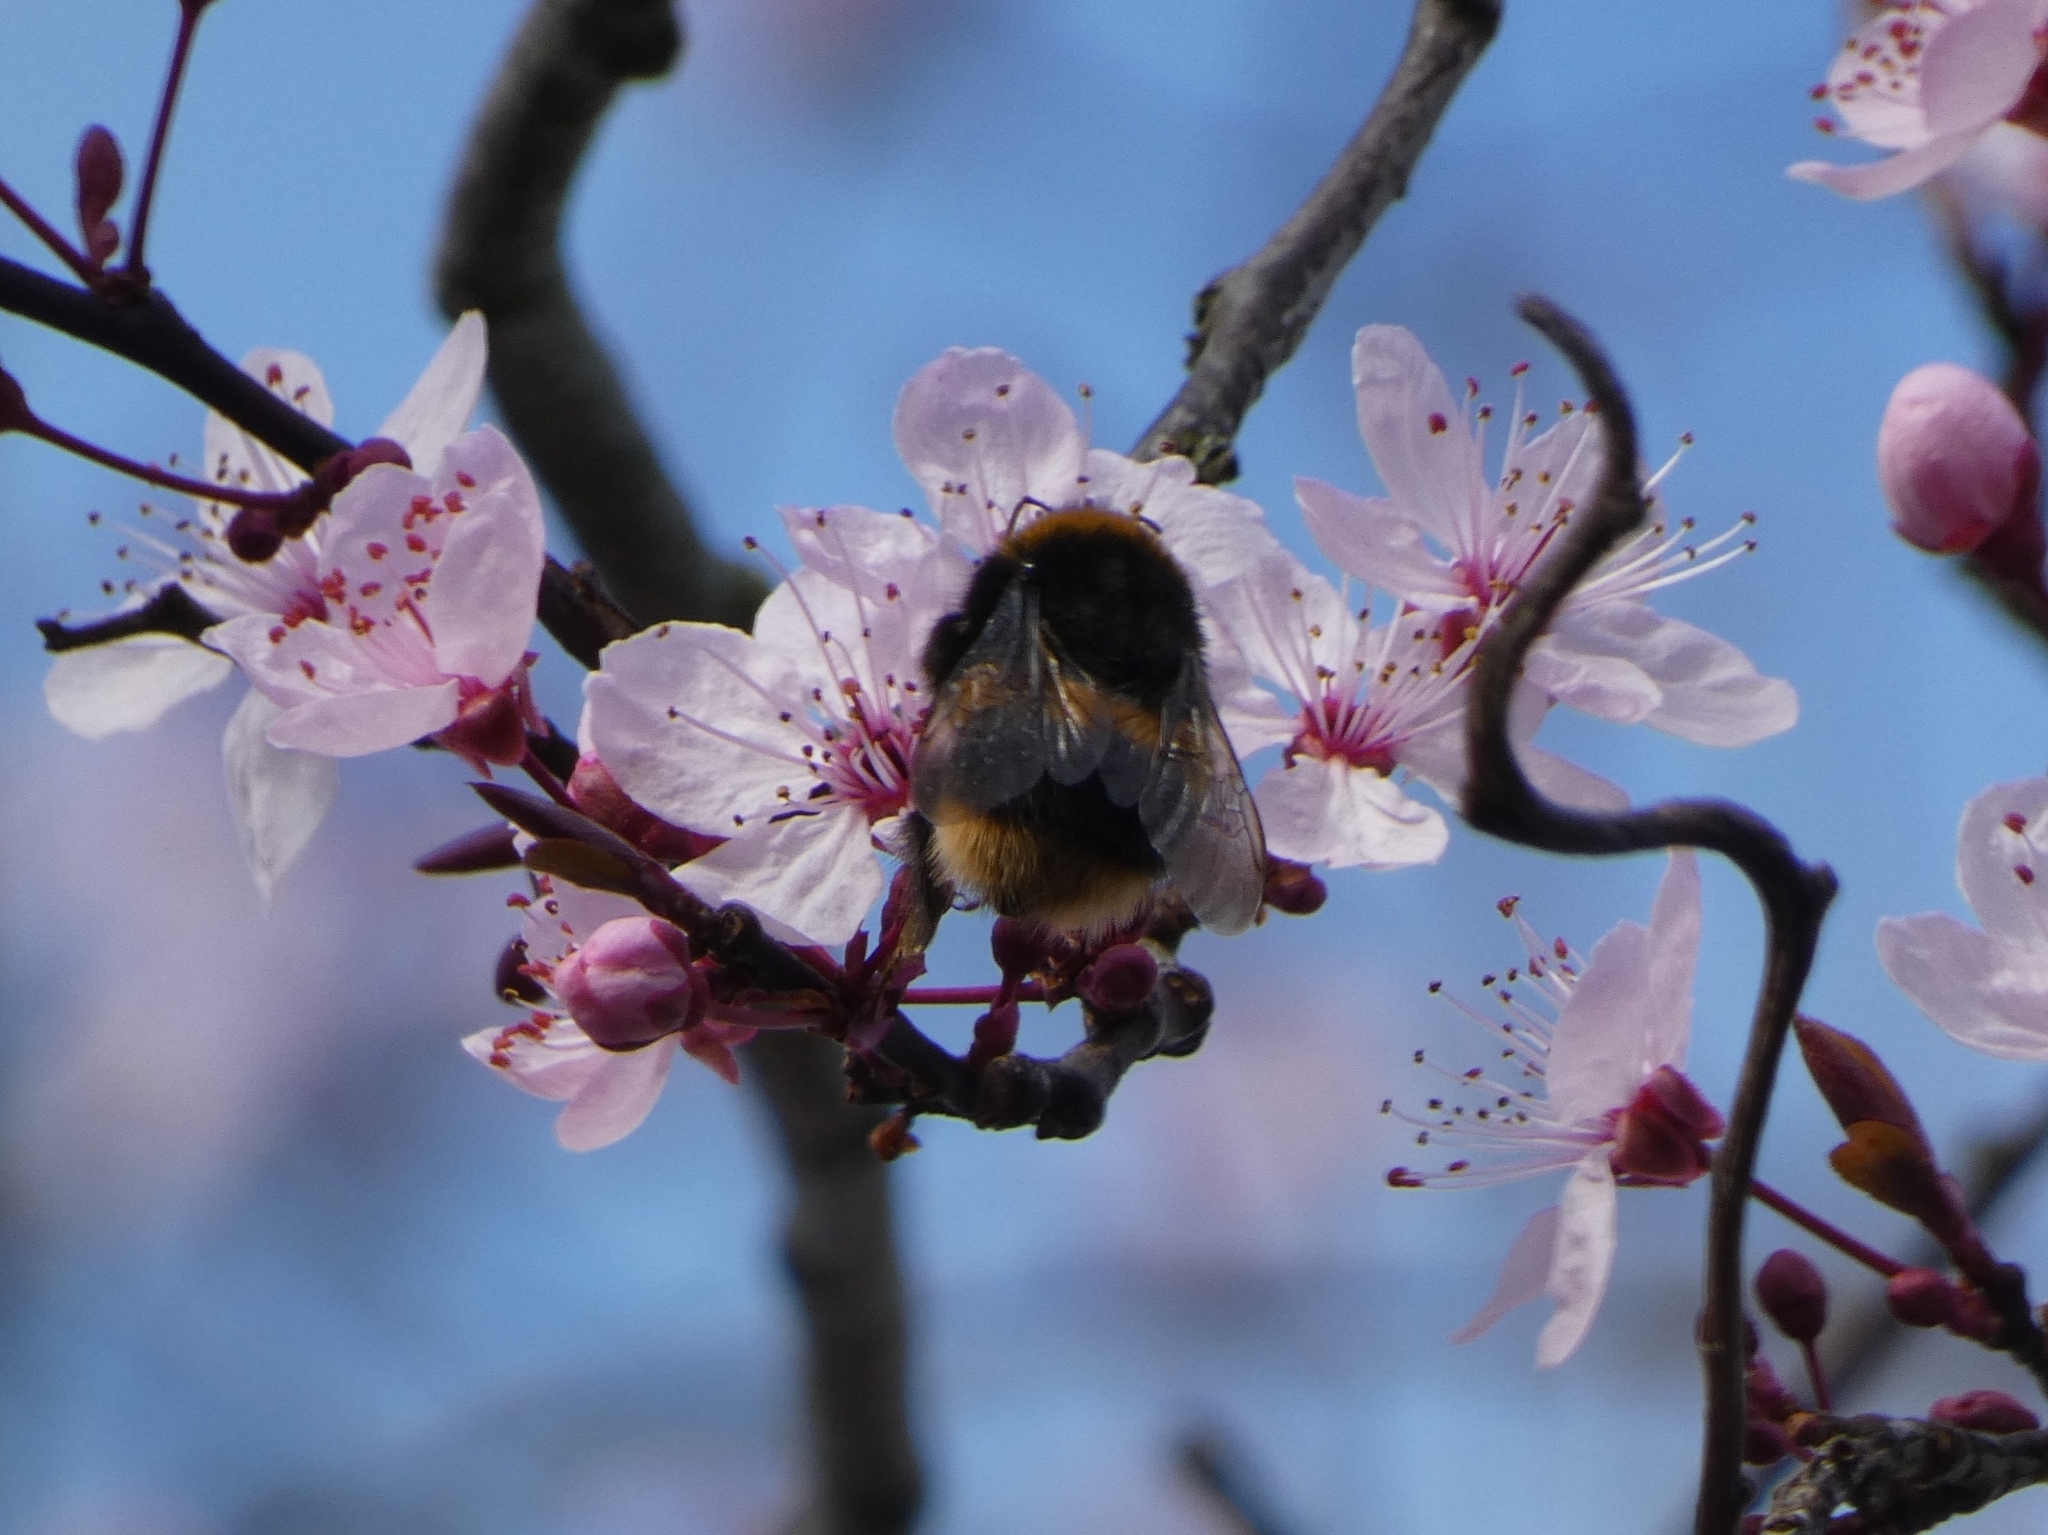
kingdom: Animalia
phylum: Arthropoda
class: Insecta
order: Hymenoptera
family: Apidae
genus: Bombus
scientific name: Bombus terrestris
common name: Buff-tailed bumblebee
